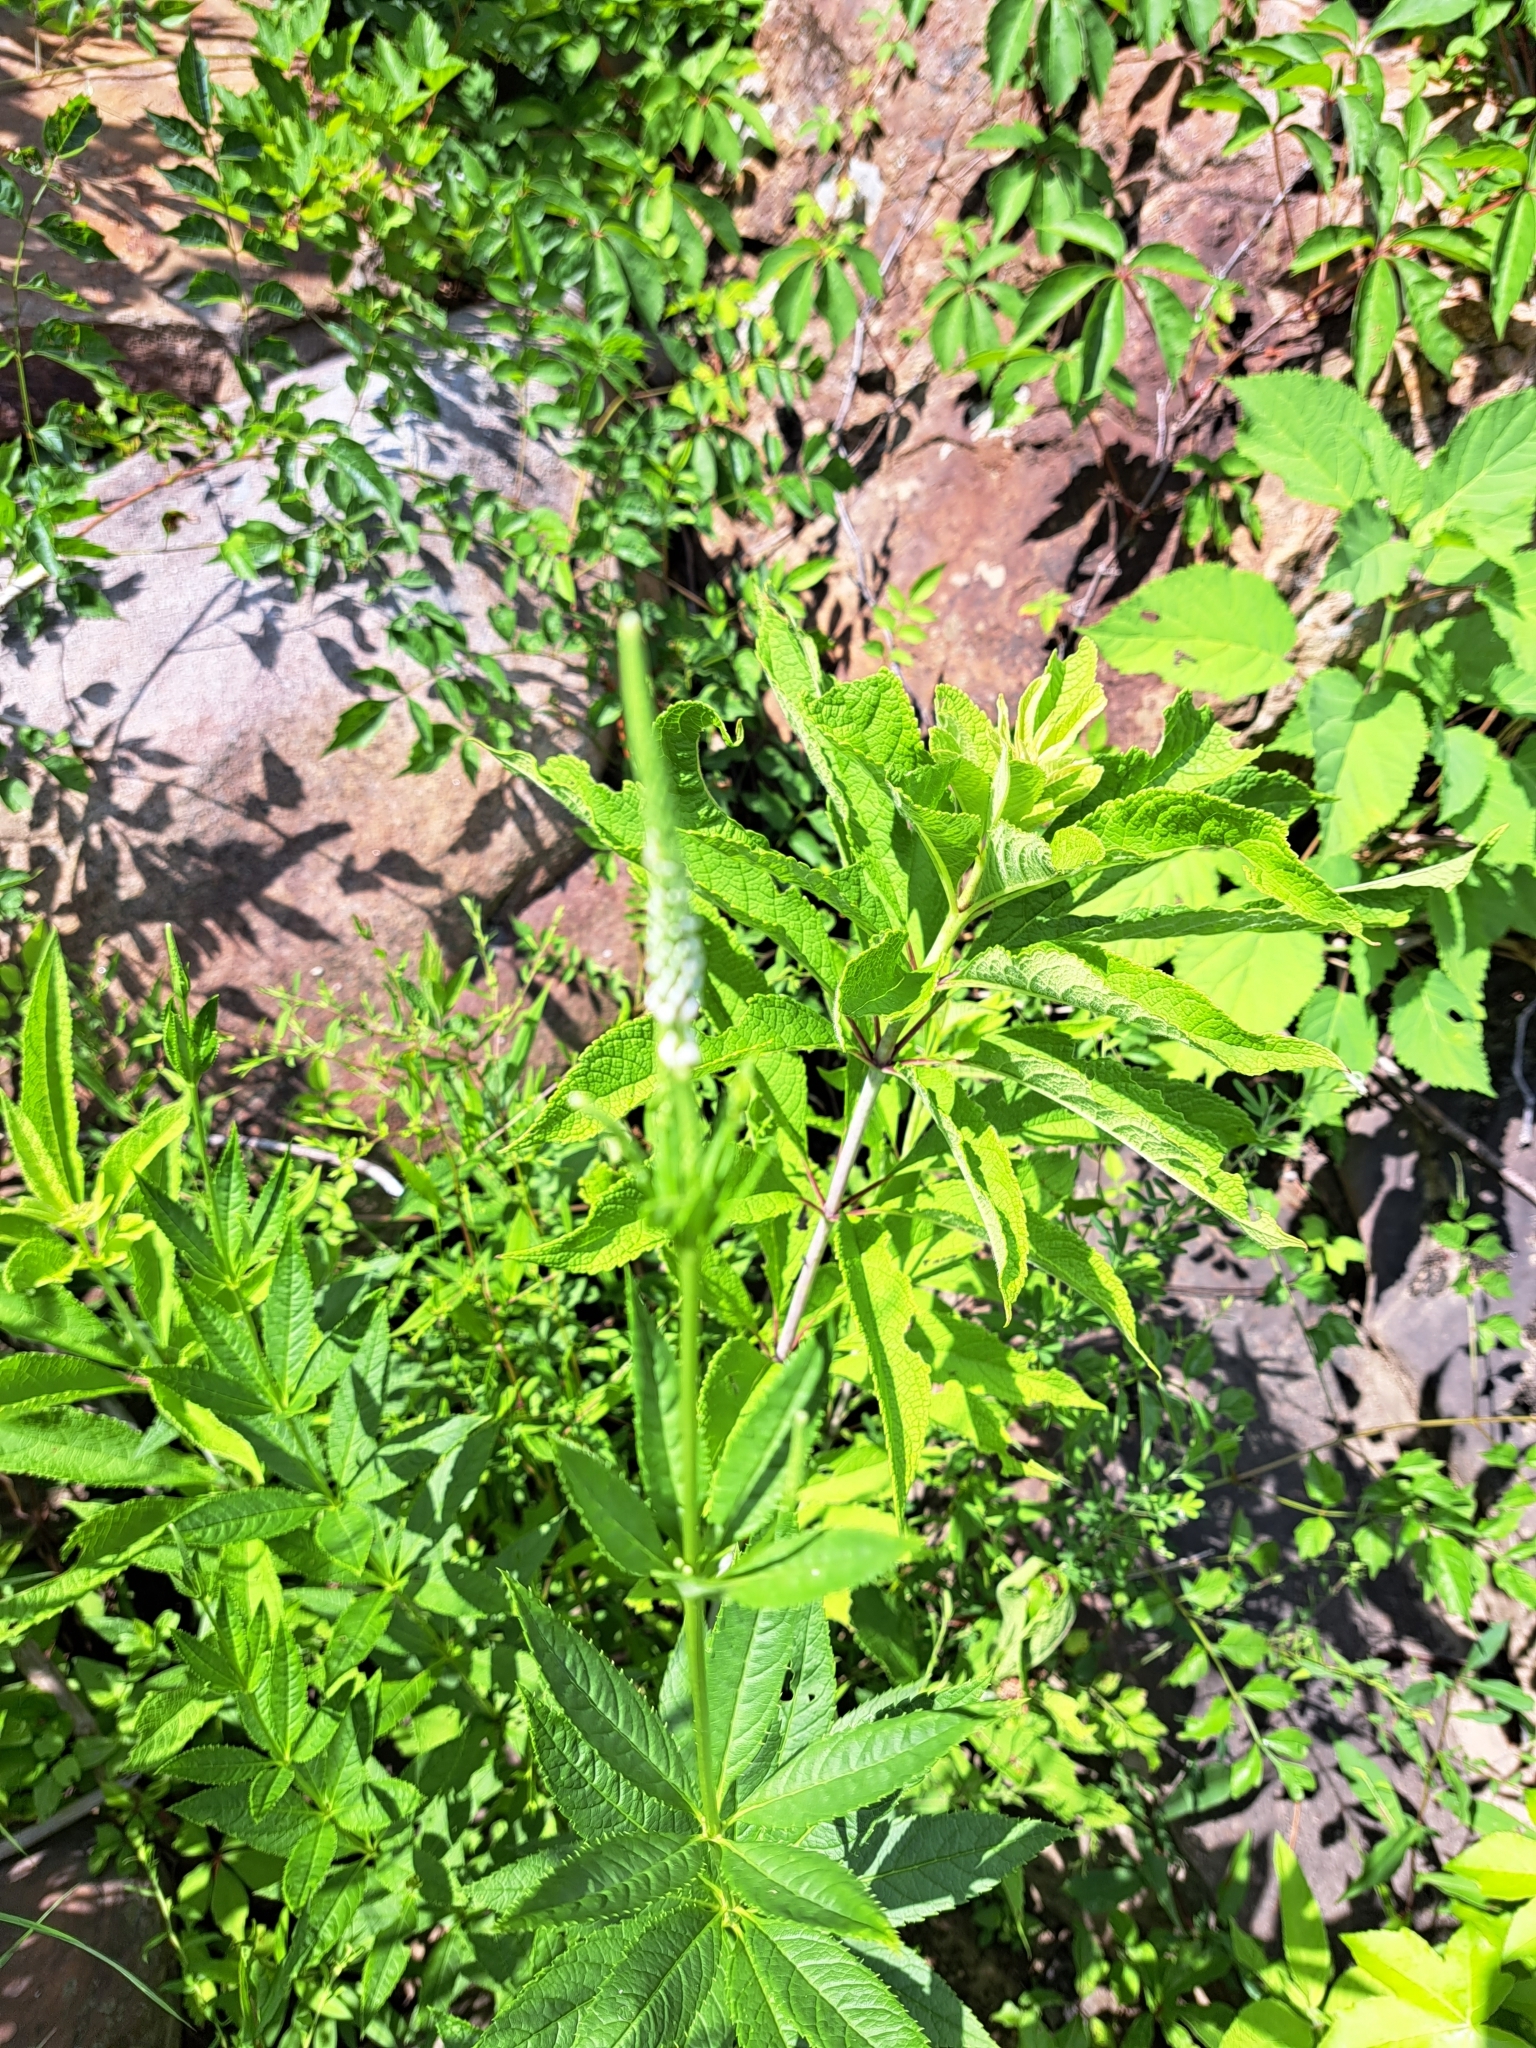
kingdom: Plantae
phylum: Tracheophyta
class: Magnoliopsida
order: Lamiales
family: Plantaginaceae
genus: Veronicastrum
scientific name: Veronicastrum virginicum
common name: Blackroot
